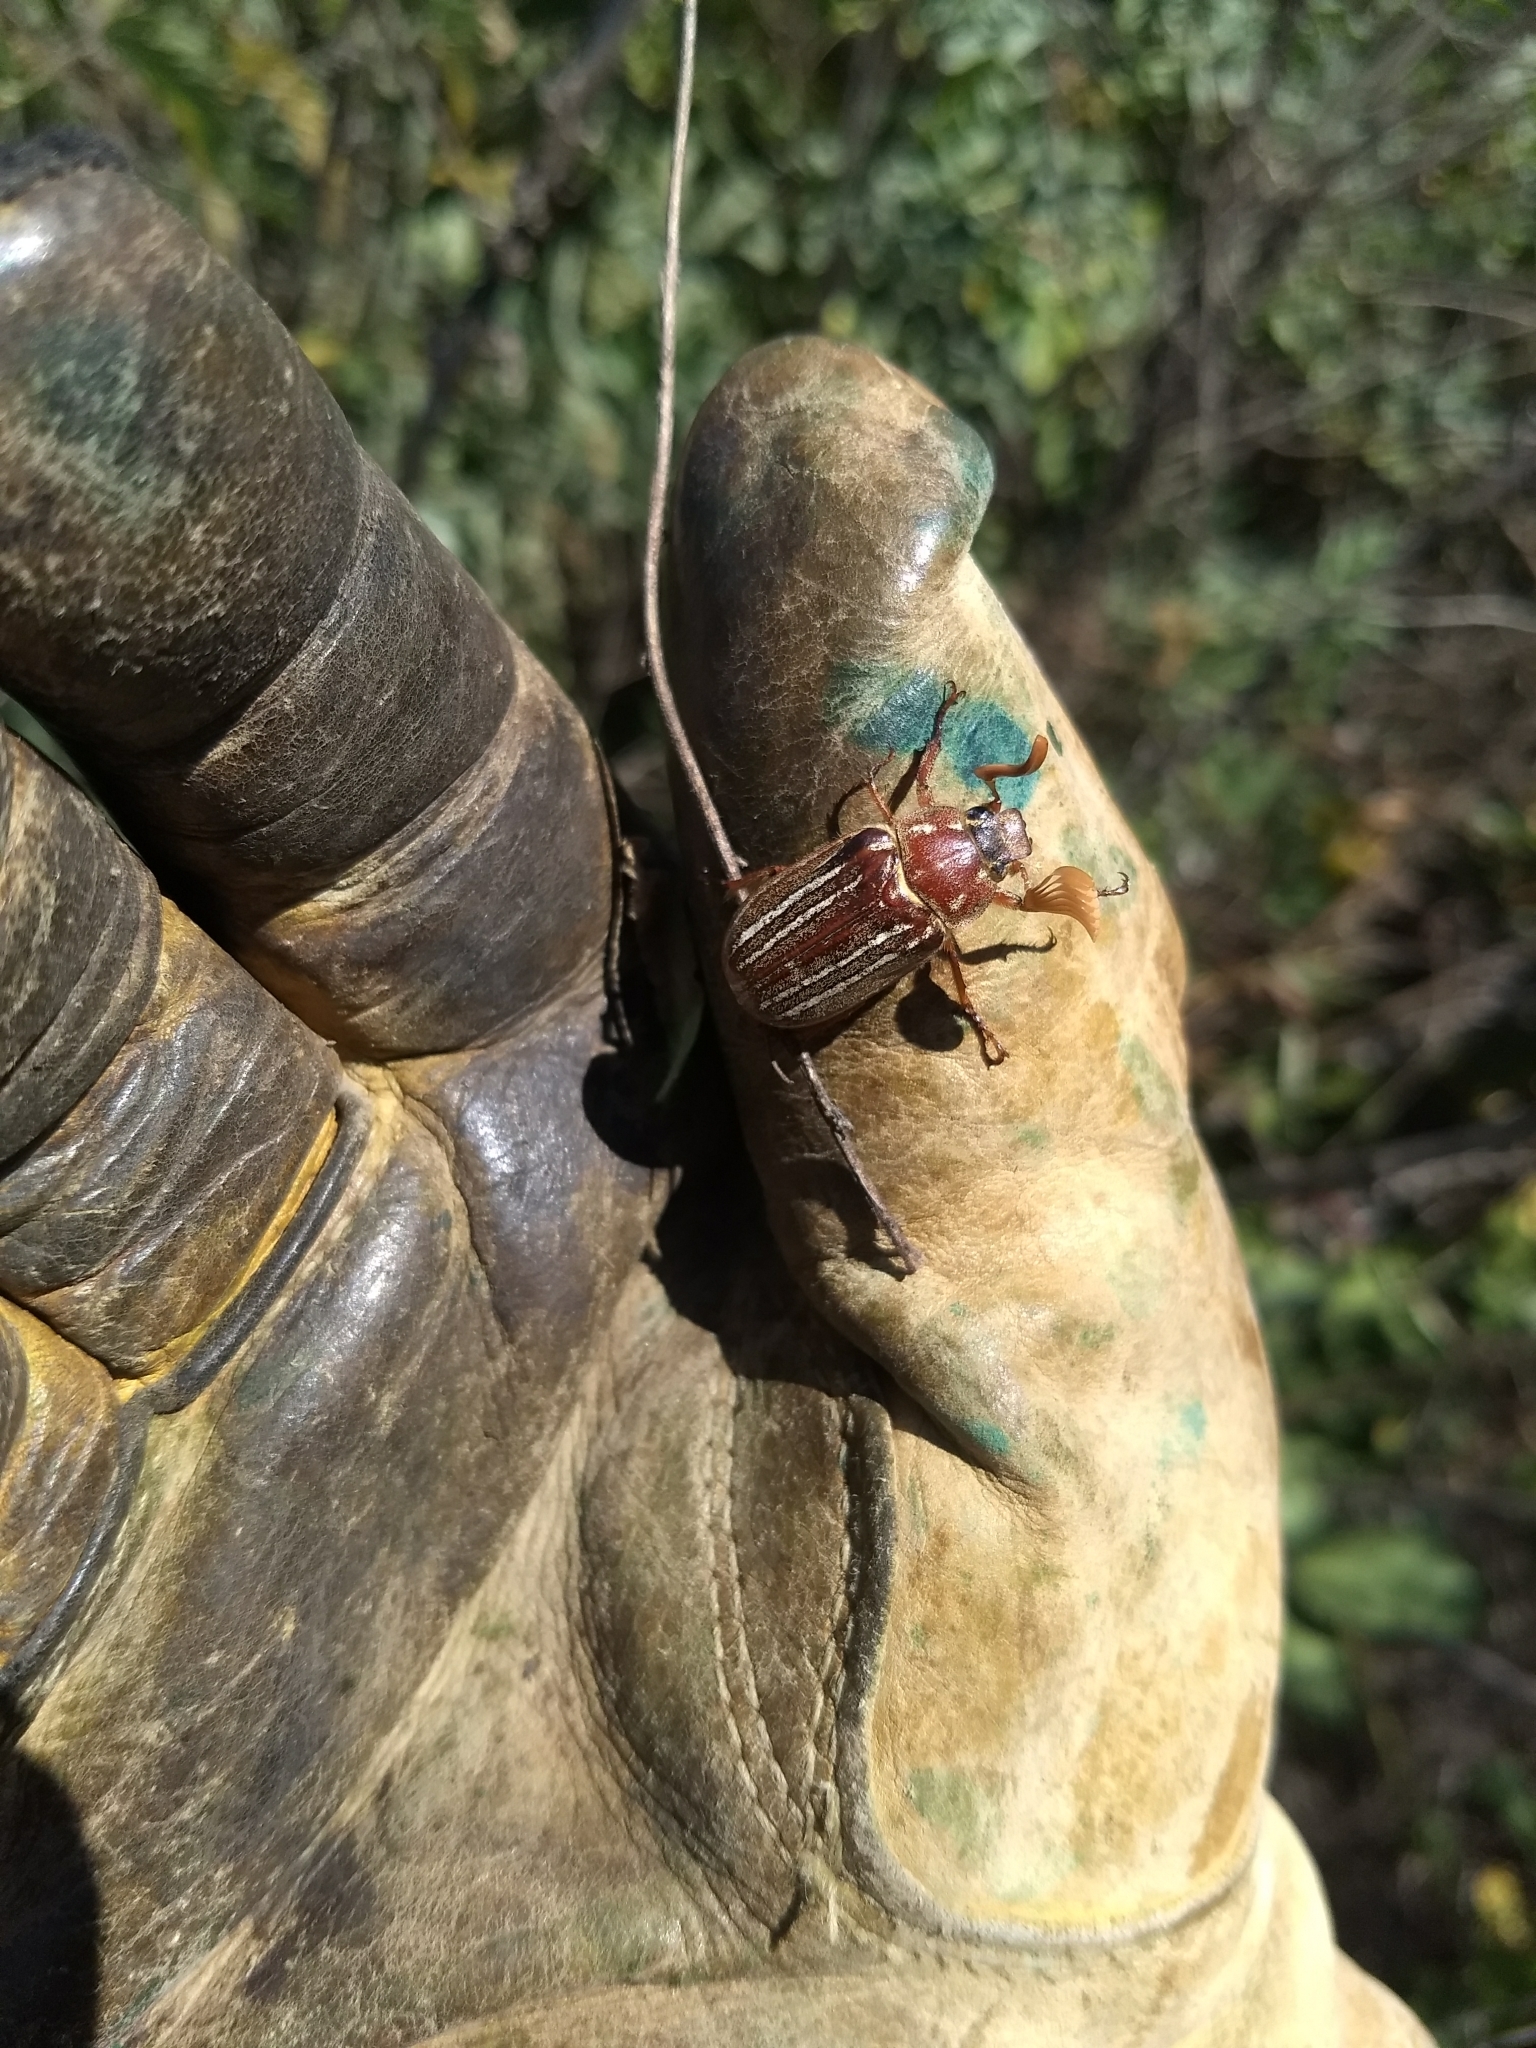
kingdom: Animalia
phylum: Arthropoda
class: Insecta
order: Coleoptera
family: Scarabaeidae
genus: Polyphylla
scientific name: Polyphylla decemlineata
